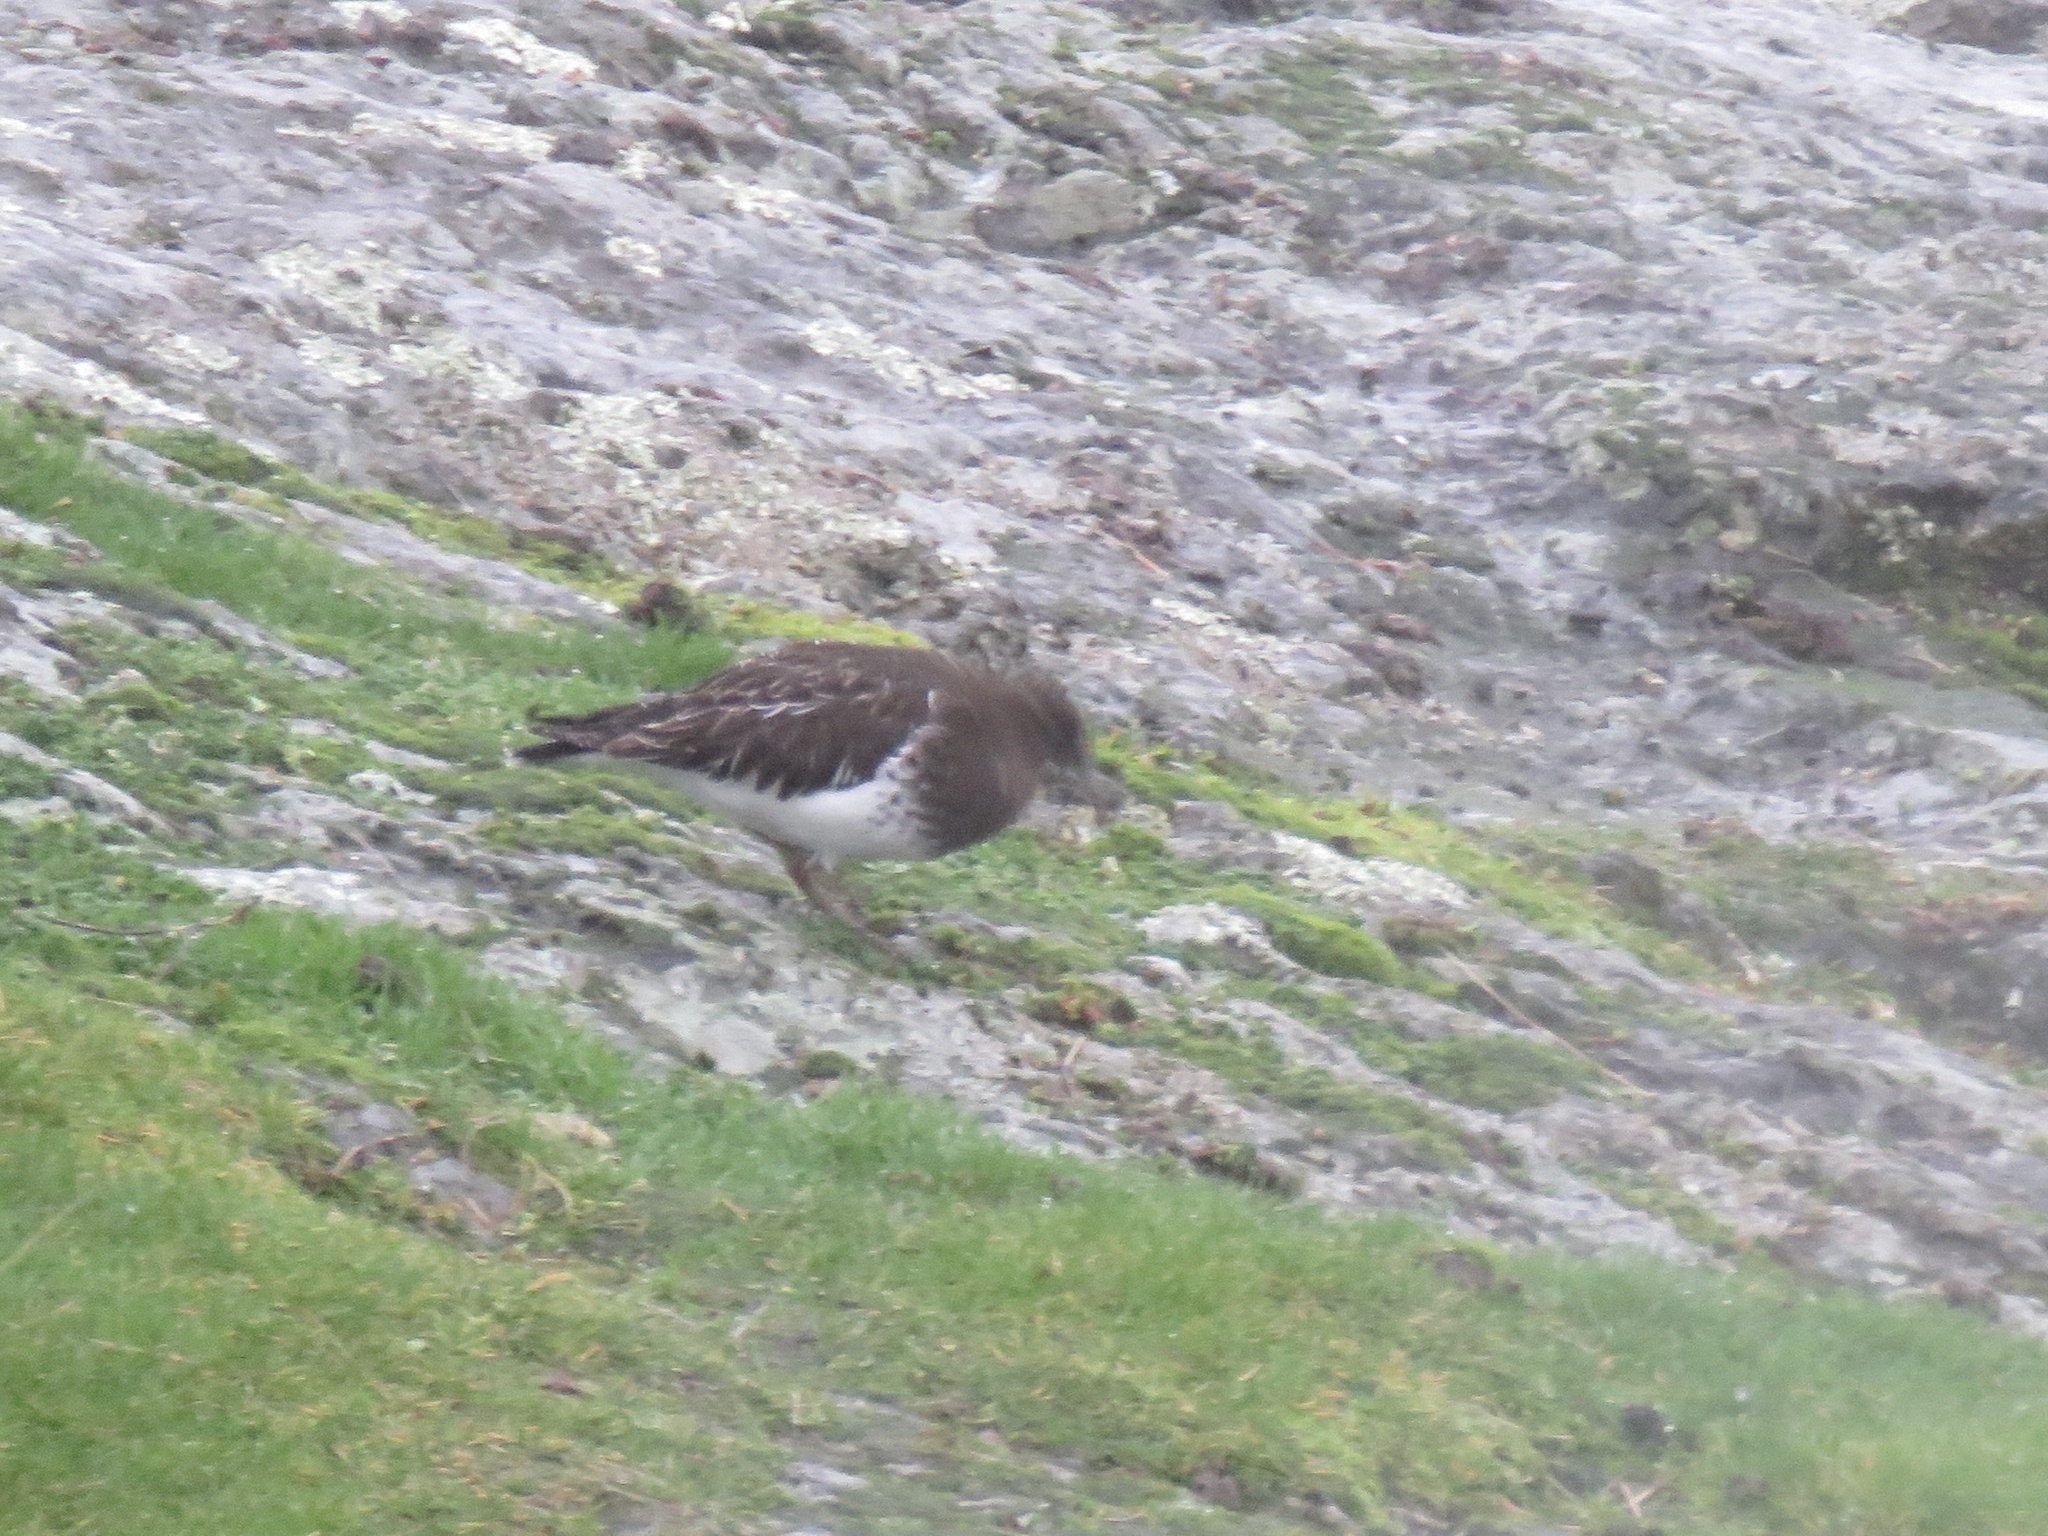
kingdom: Animalia
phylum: Chordata
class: Aves
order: Charadriiformes
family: Scolopacidae
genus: Arenaria
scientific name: Arenaria melanocephala
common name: Black turnstone
